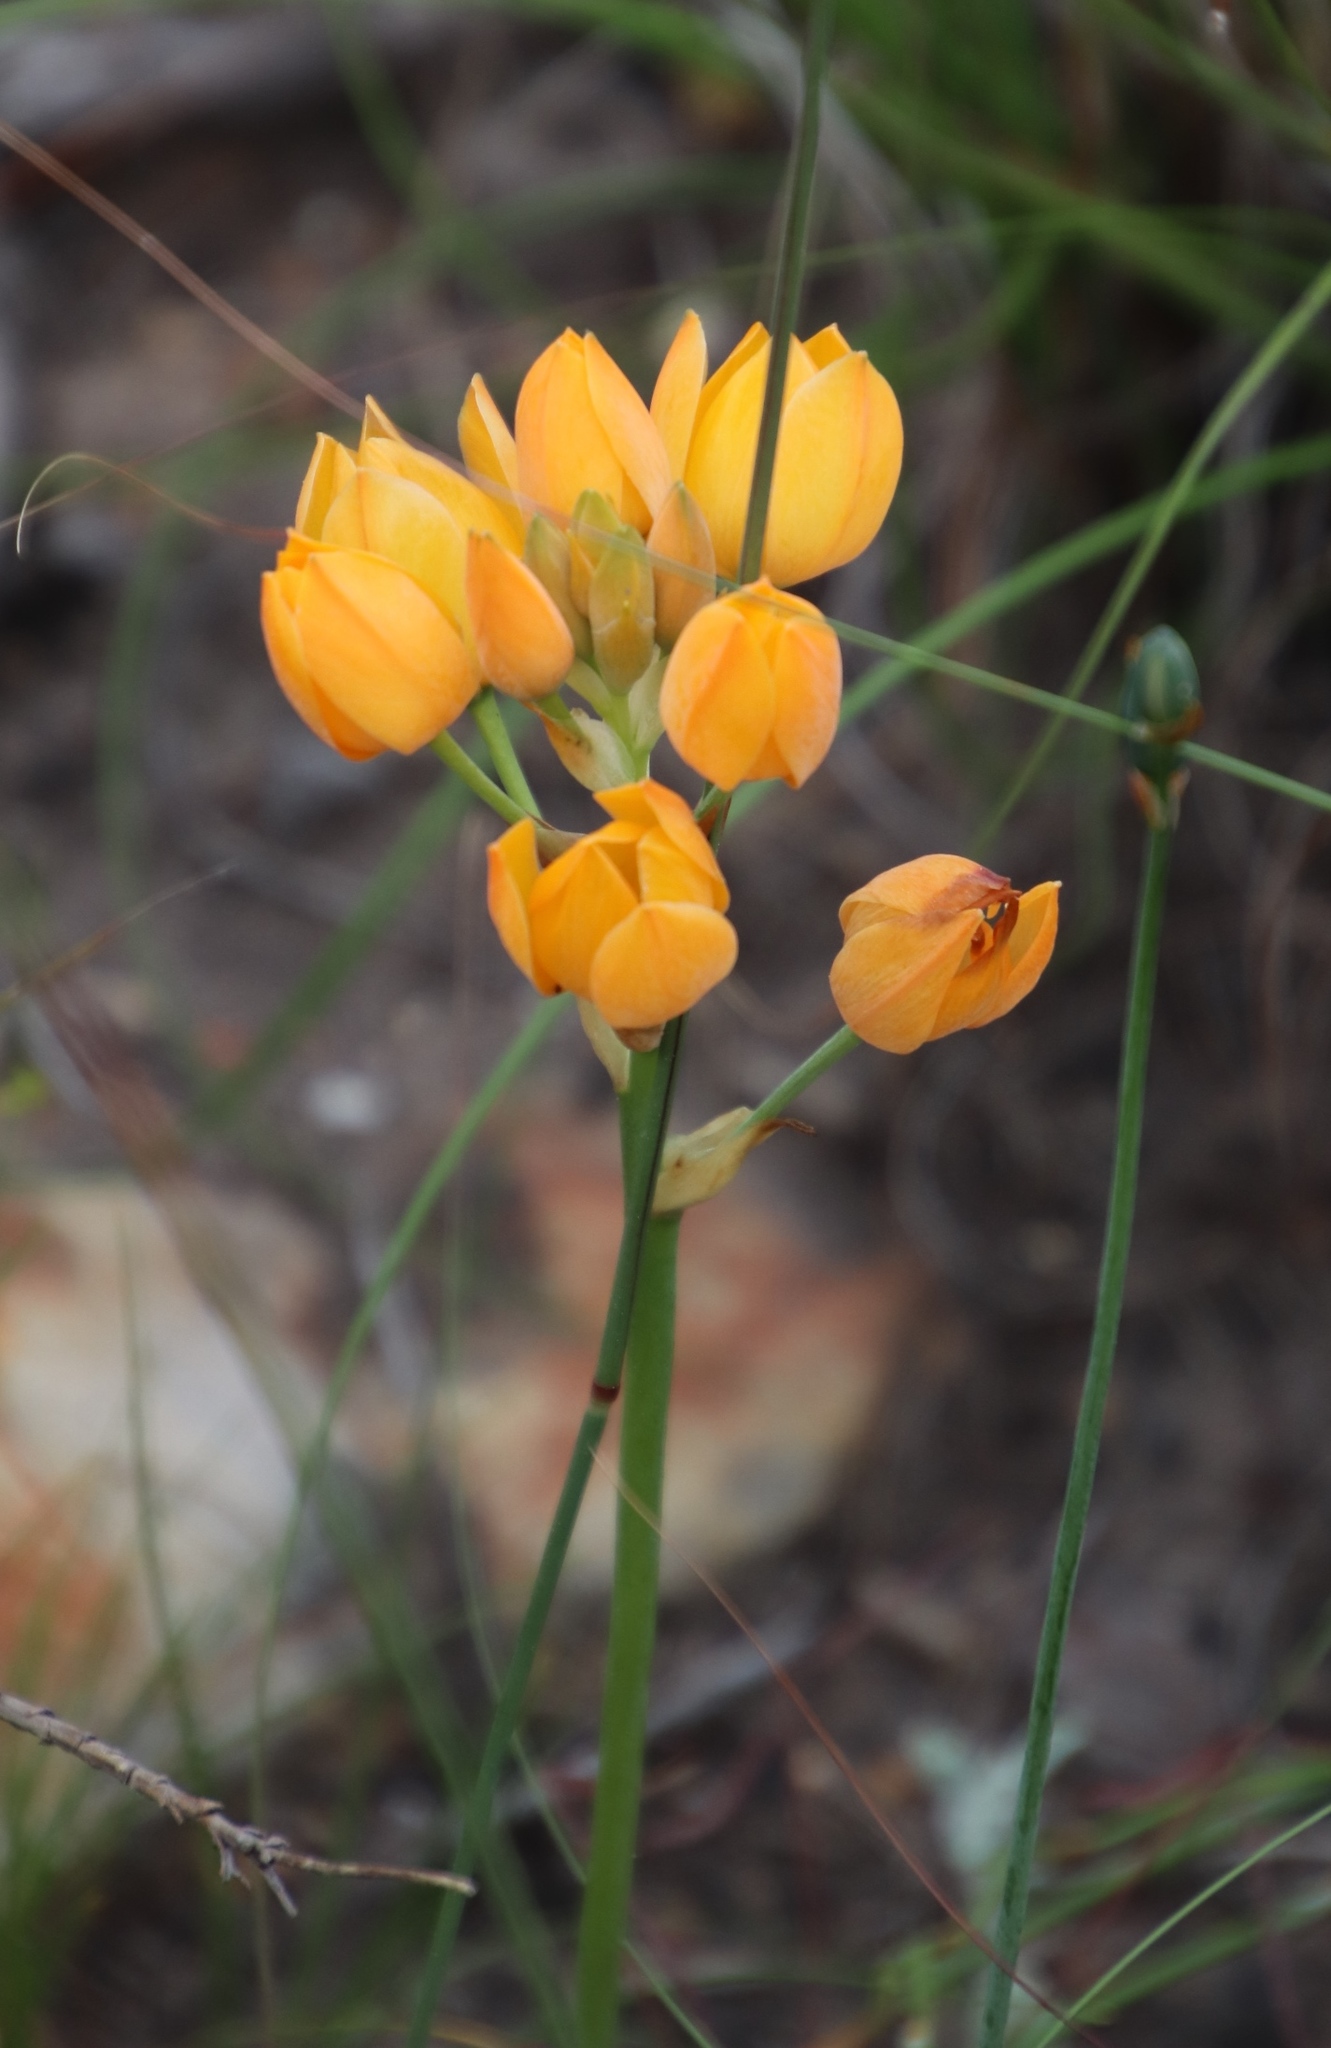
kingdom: Plantae
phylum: Tracheophyta
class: Liliopsida
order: Asparagales
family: Asparagaceae
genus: Ornithogalum
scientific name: Ornithogalum dubium
